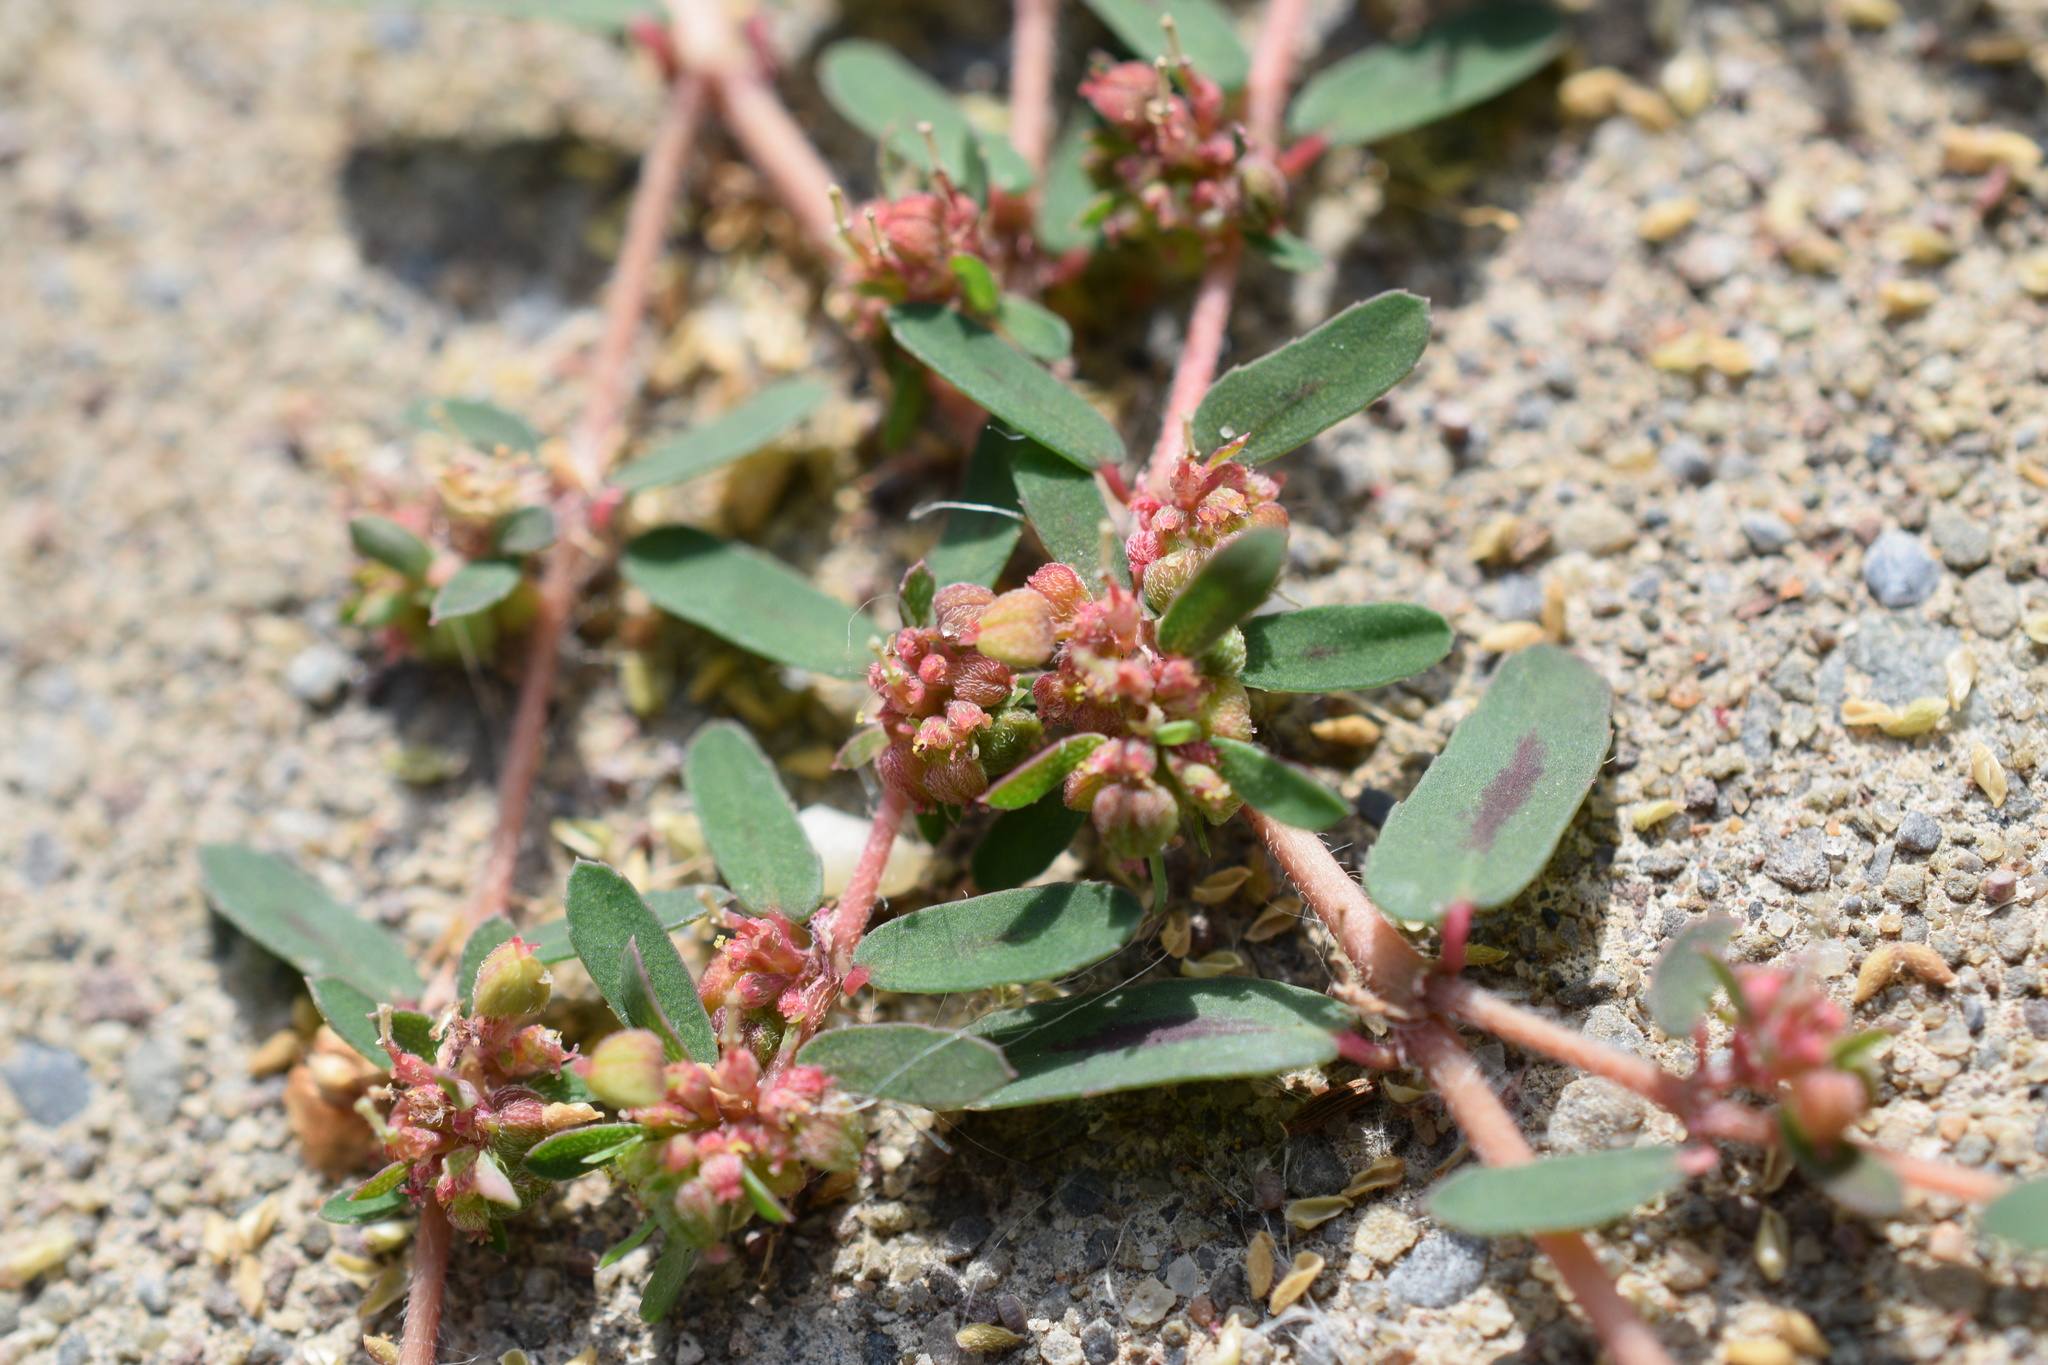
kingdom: Plantae
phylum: Tracheophyta
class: Magnoliopsida
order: Malpighiales
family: Euphorbiaceae
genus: Euphorbia
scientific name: Euphorbia maculata
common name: Spotted spurge
